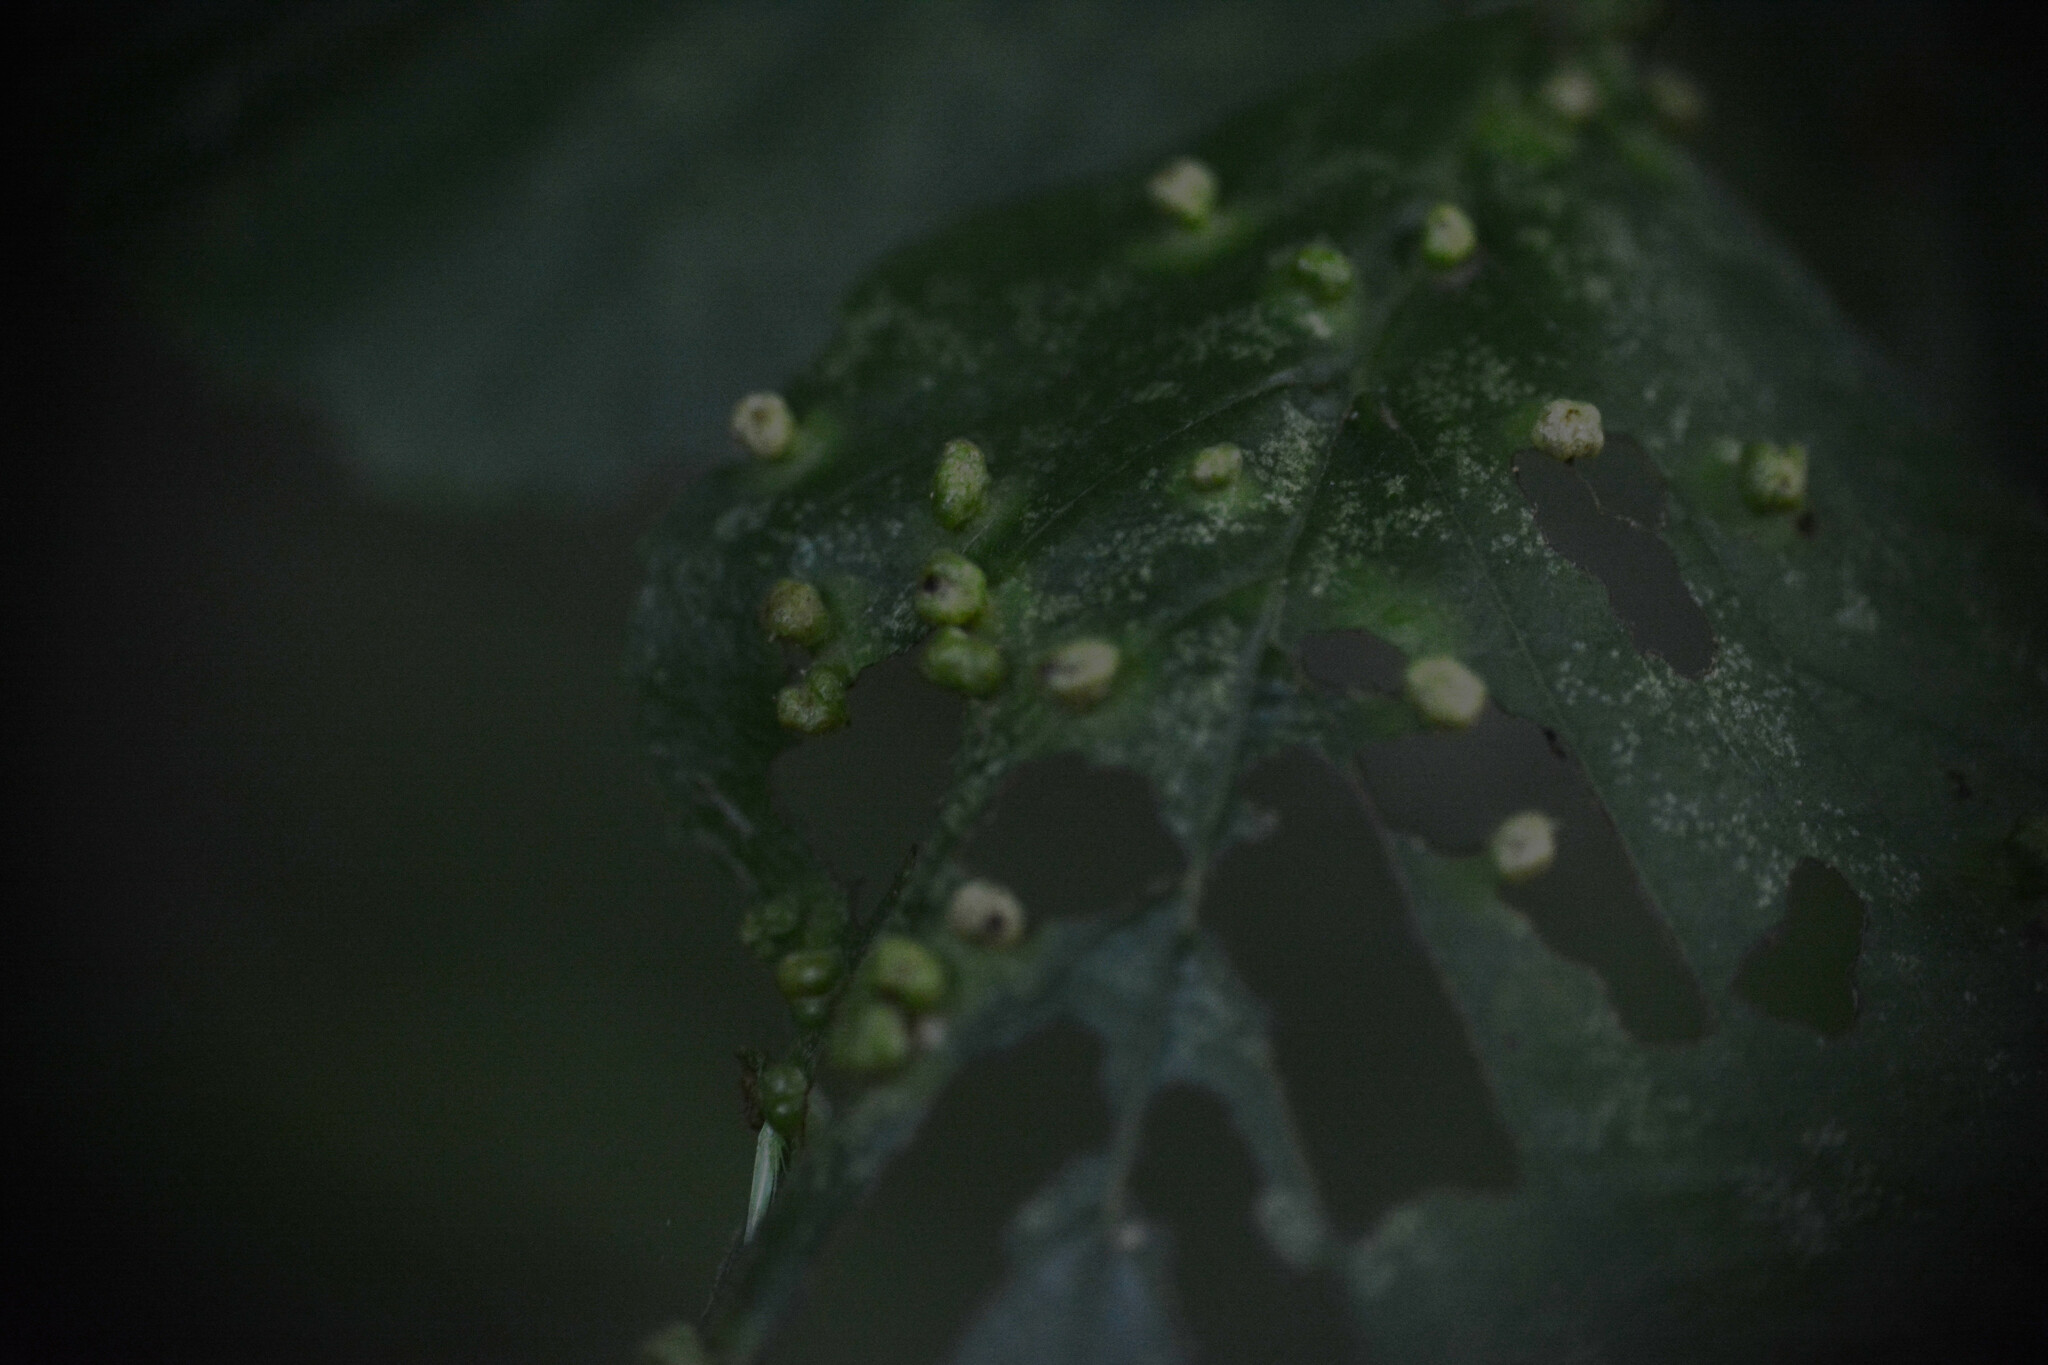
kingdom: Animalia
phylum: Arthropoda
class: Arachnida
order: Trombidiformes
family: Eriophyidae
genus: Eriophyes
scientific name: Eriophyes laevis
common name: Alder leaf gall mite
